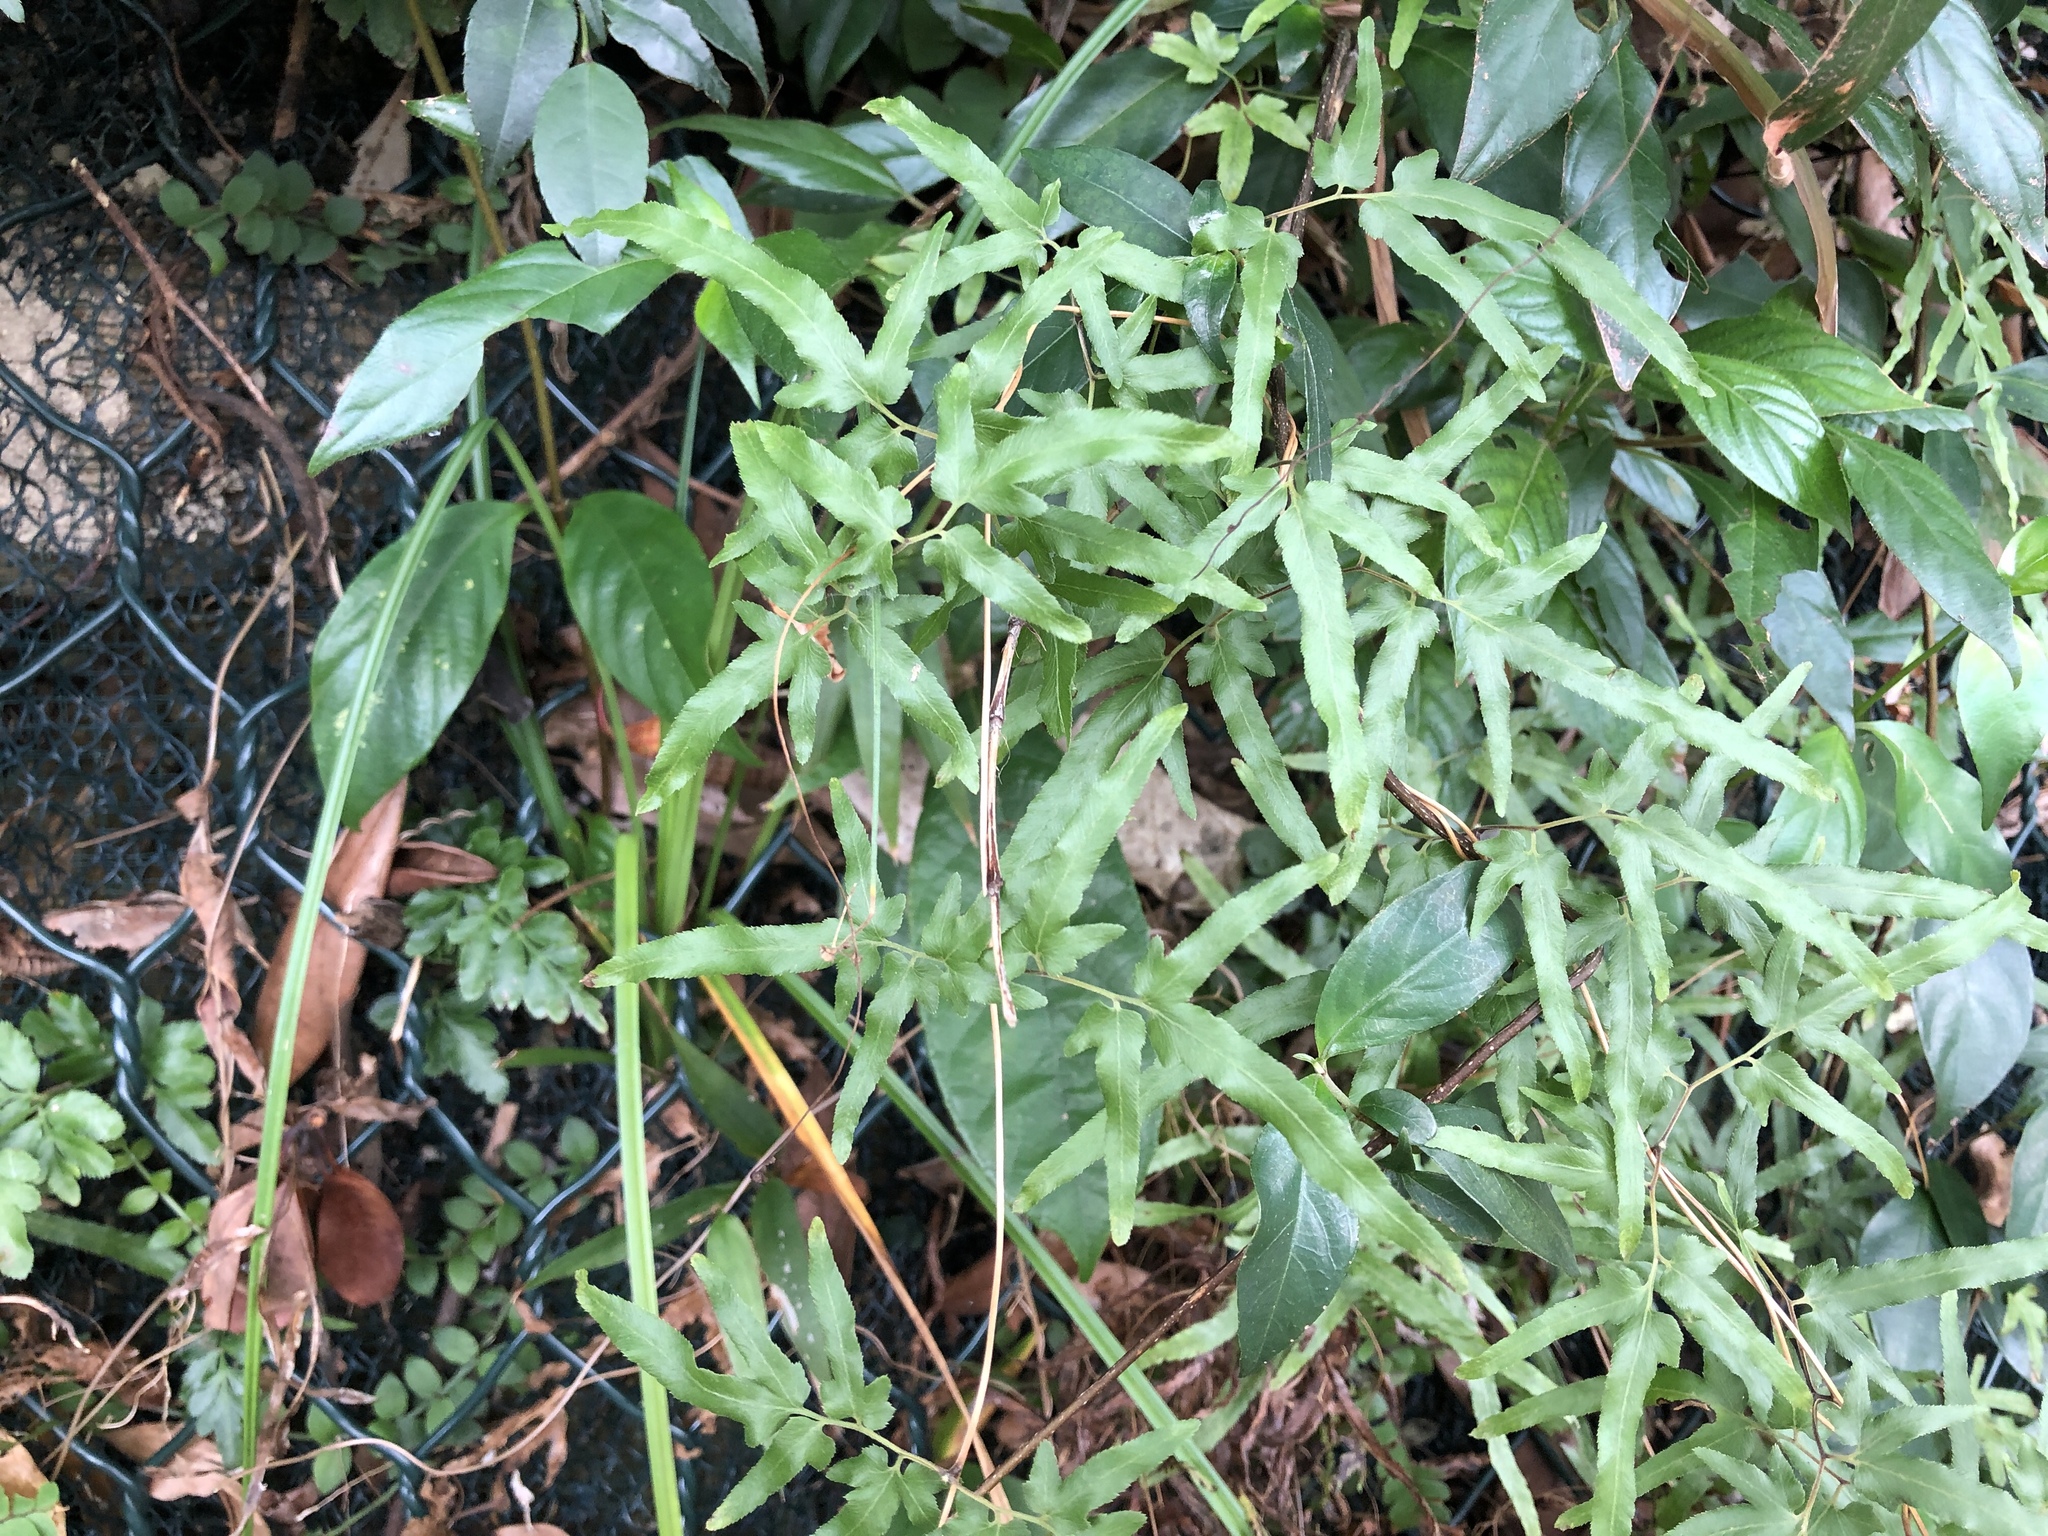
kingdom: Plantae
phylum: Tracheophyta
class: Polypodiopsida
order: Schizaeales
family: Lygodiaceae
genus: Lygodium
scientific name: Lygodium japonicum
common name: Japanese climbing fern
